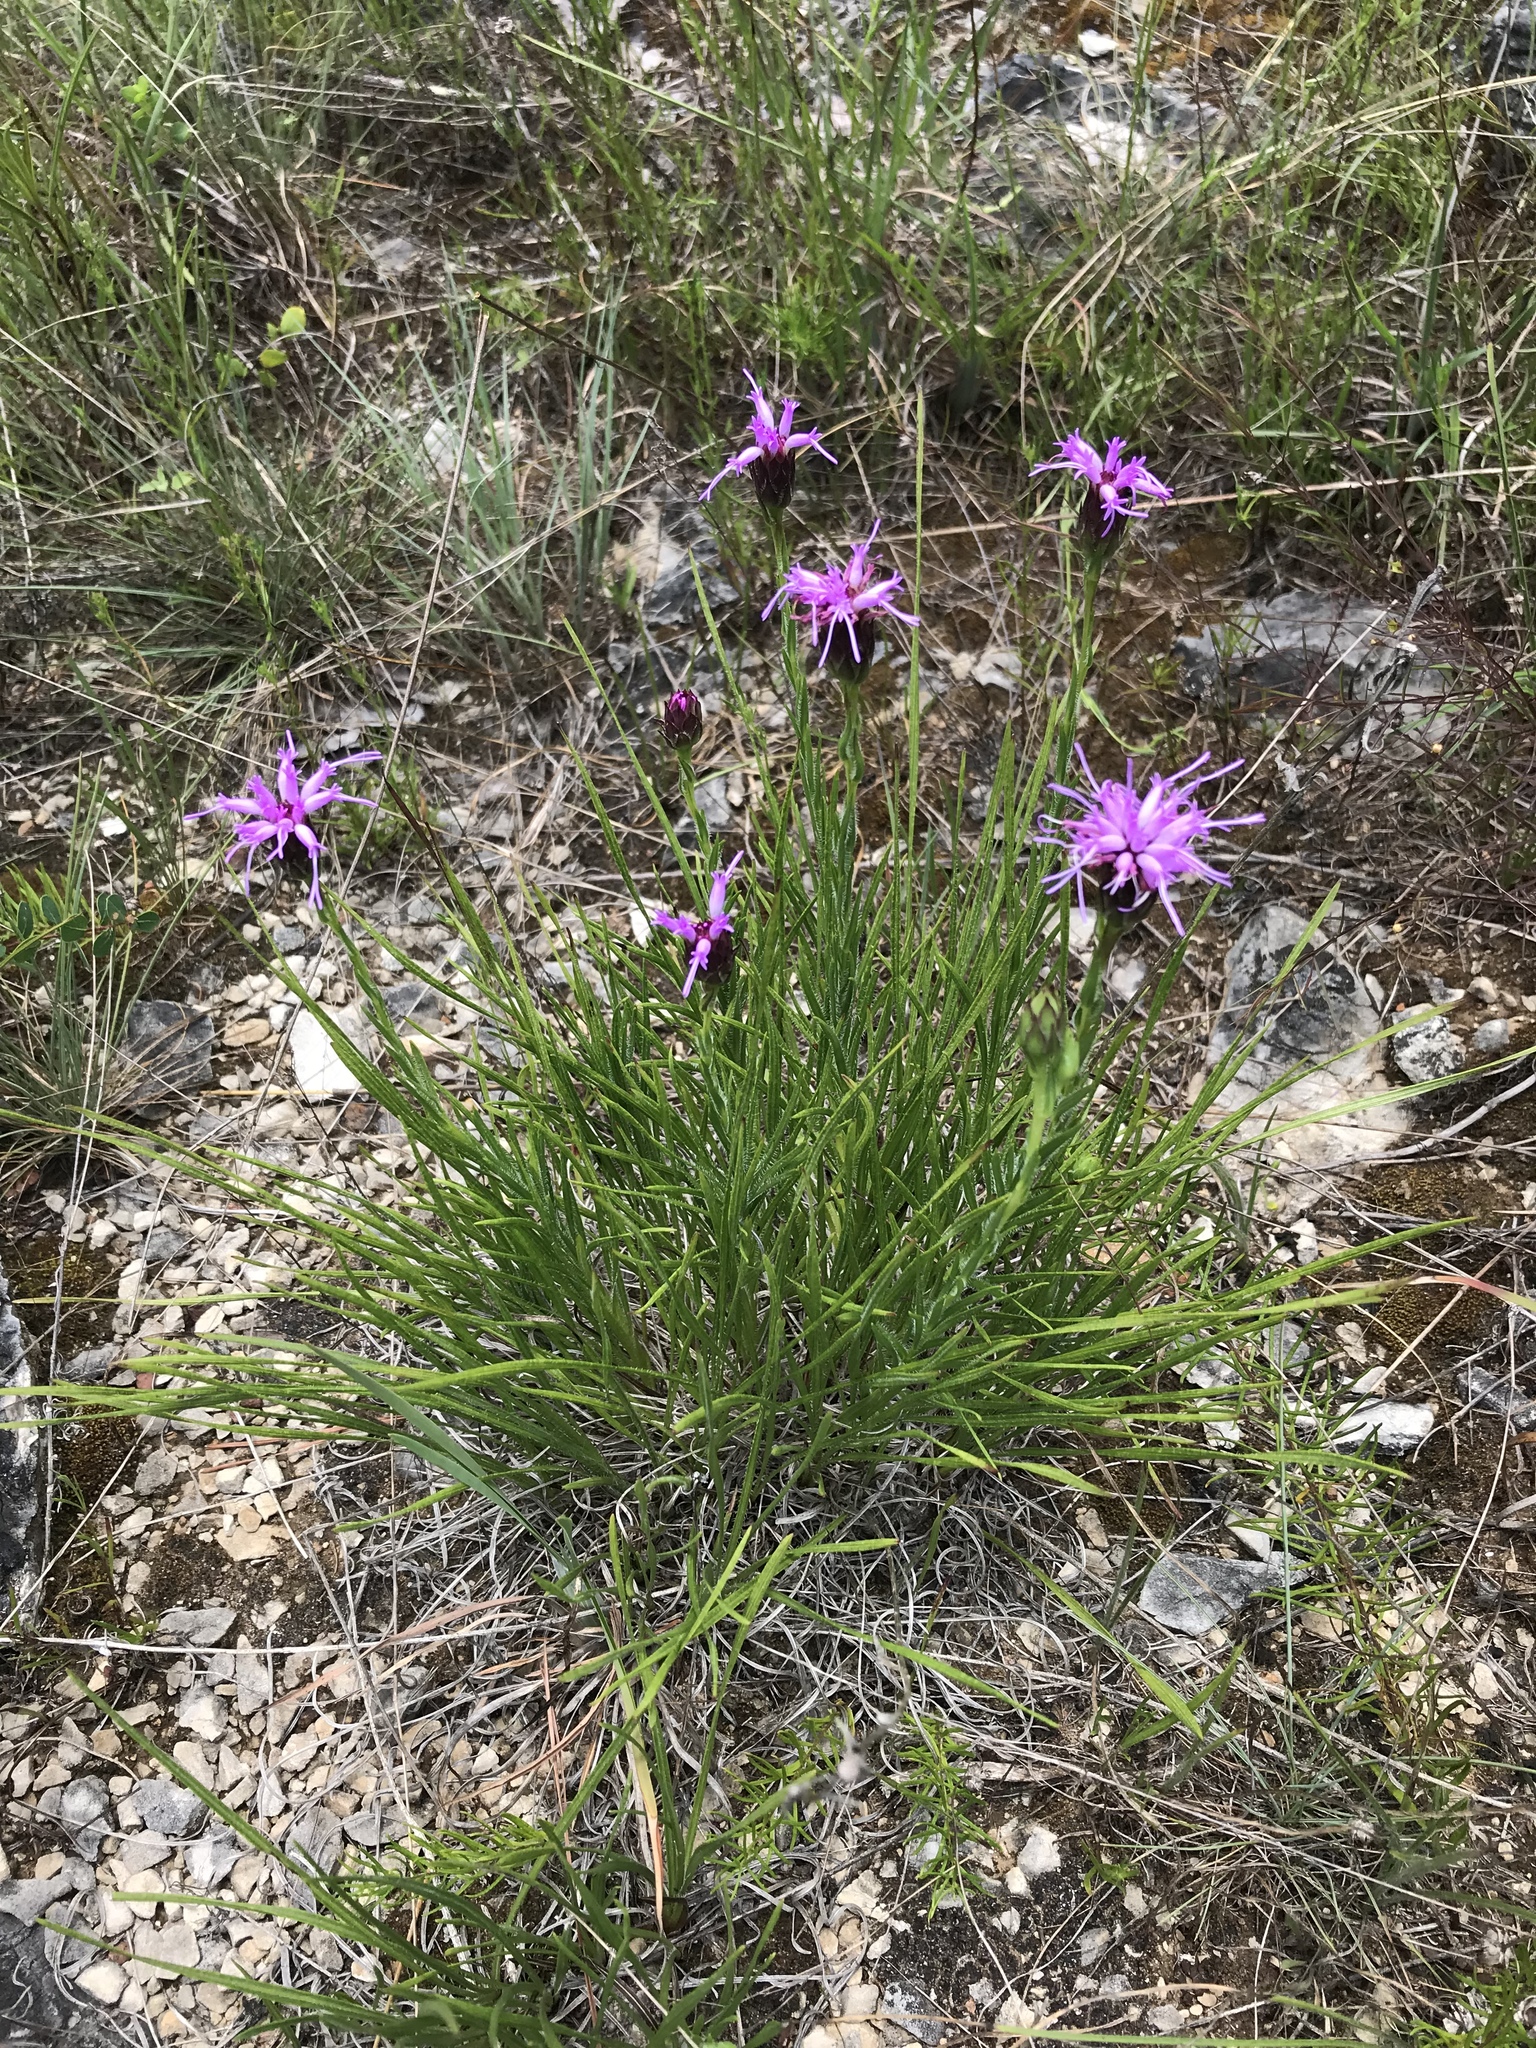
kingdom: Plantae
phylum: Tracheophyta
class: Magnoliopsida
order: Asterales
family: Asteraceae
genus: Liatris
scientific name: Liatris oligocephala
